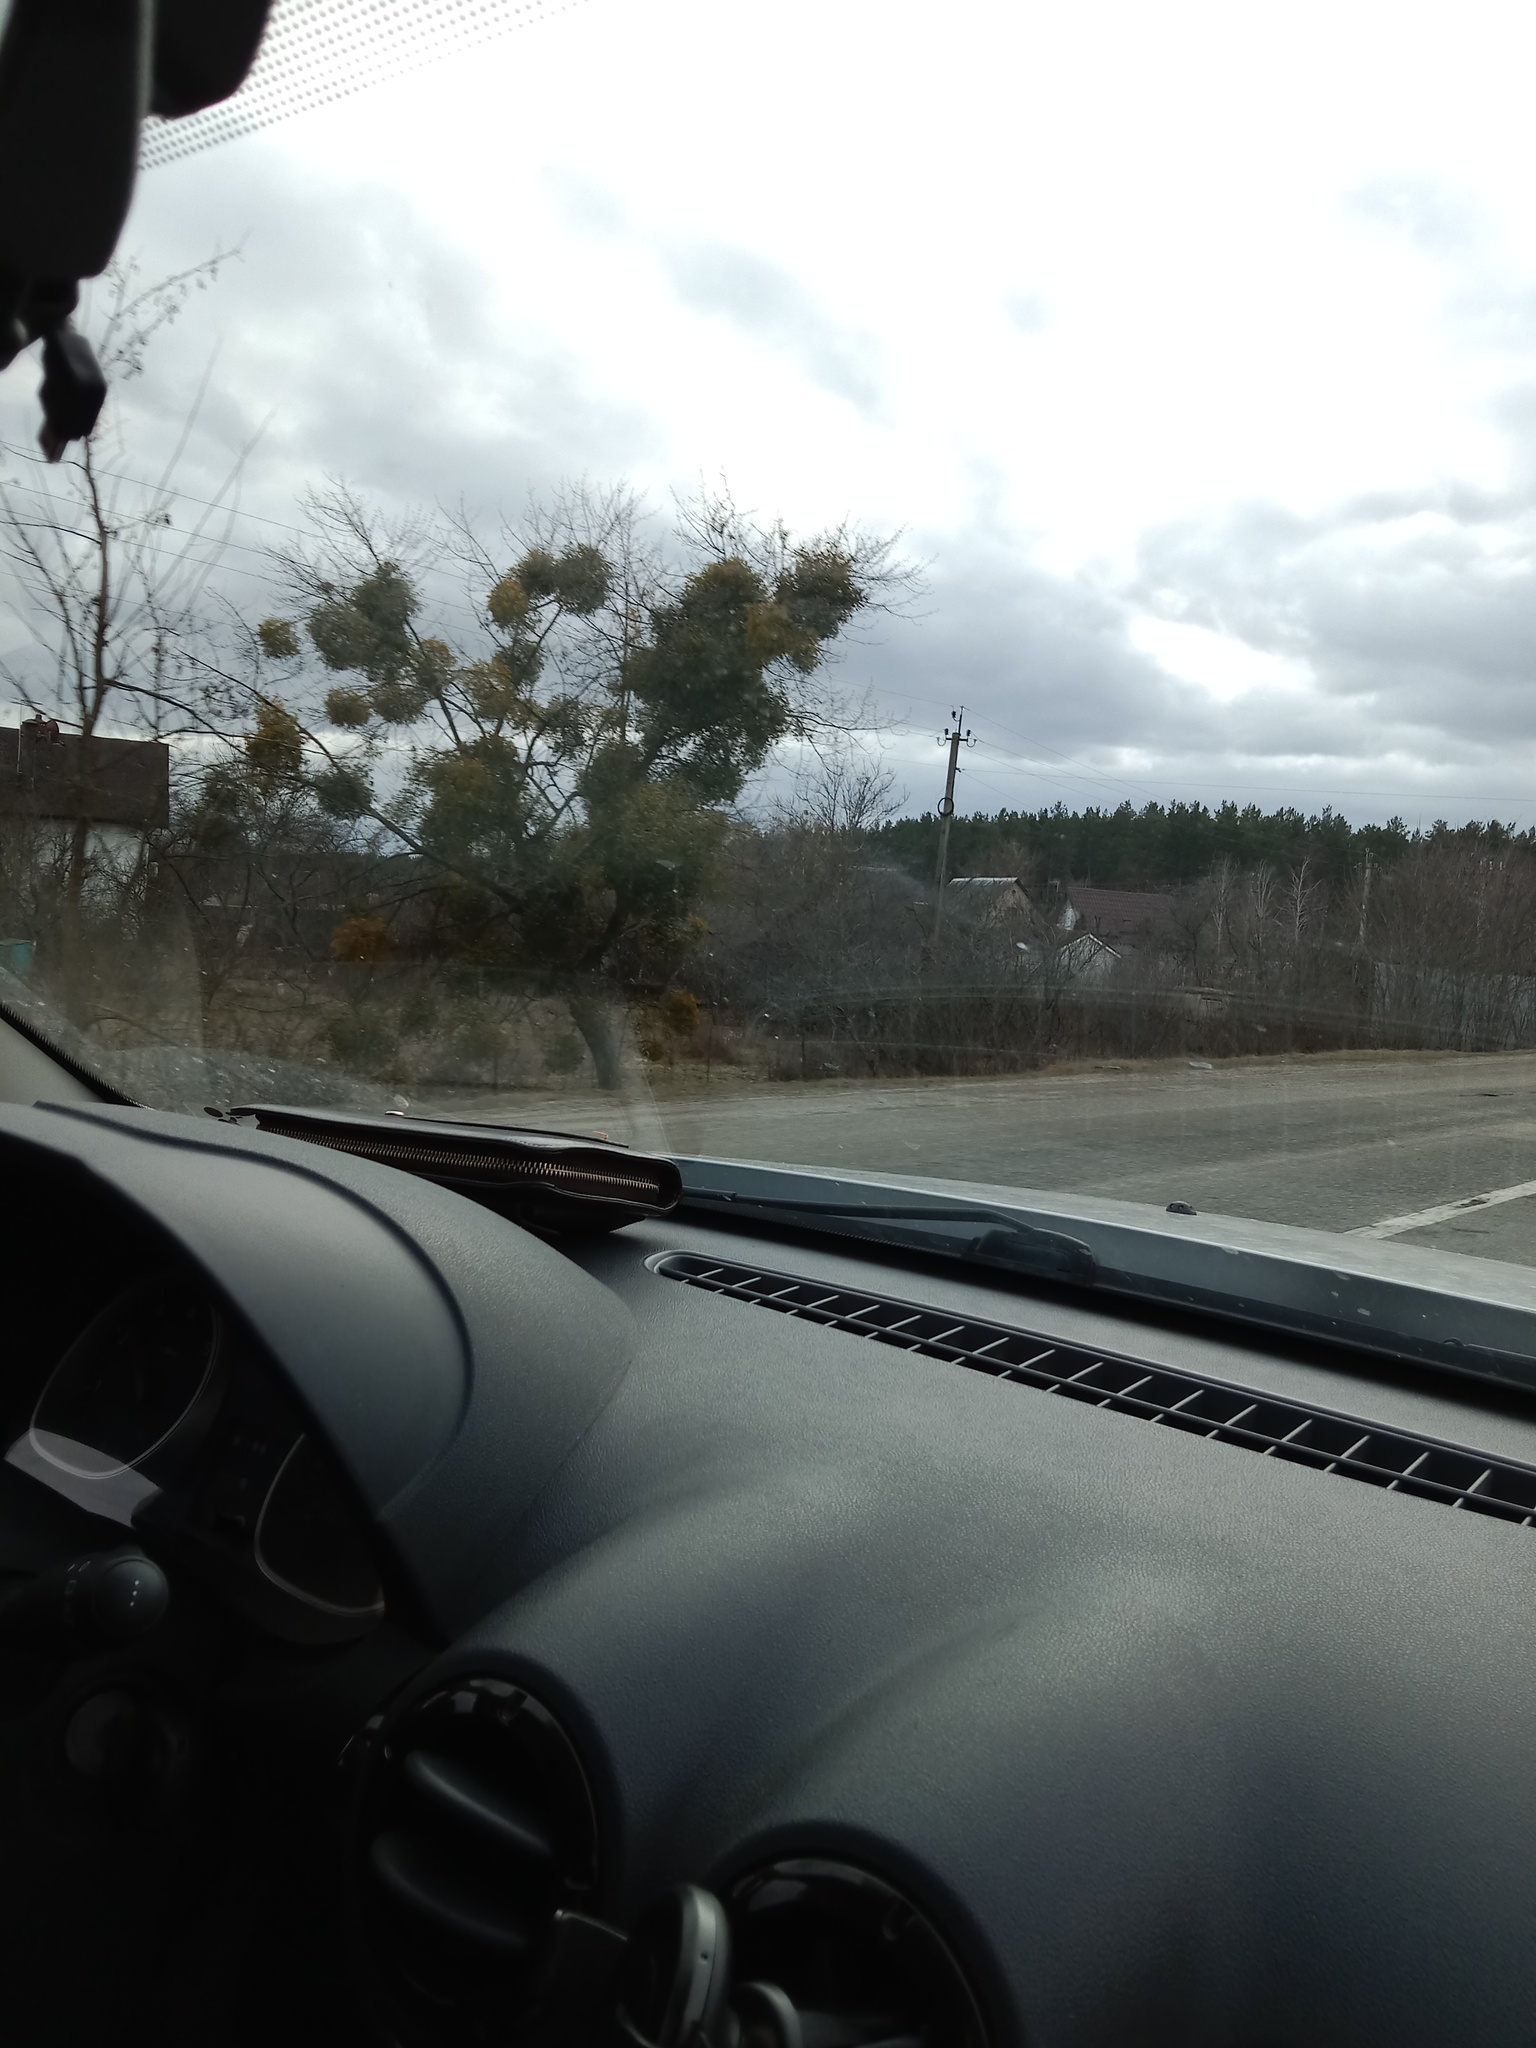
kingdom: Plantae
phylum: Tracheophyta
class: Magnoliopsida
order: Santalales
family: Viscaceae
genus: Viscum
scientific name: Viscum album
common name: Mistletoe
